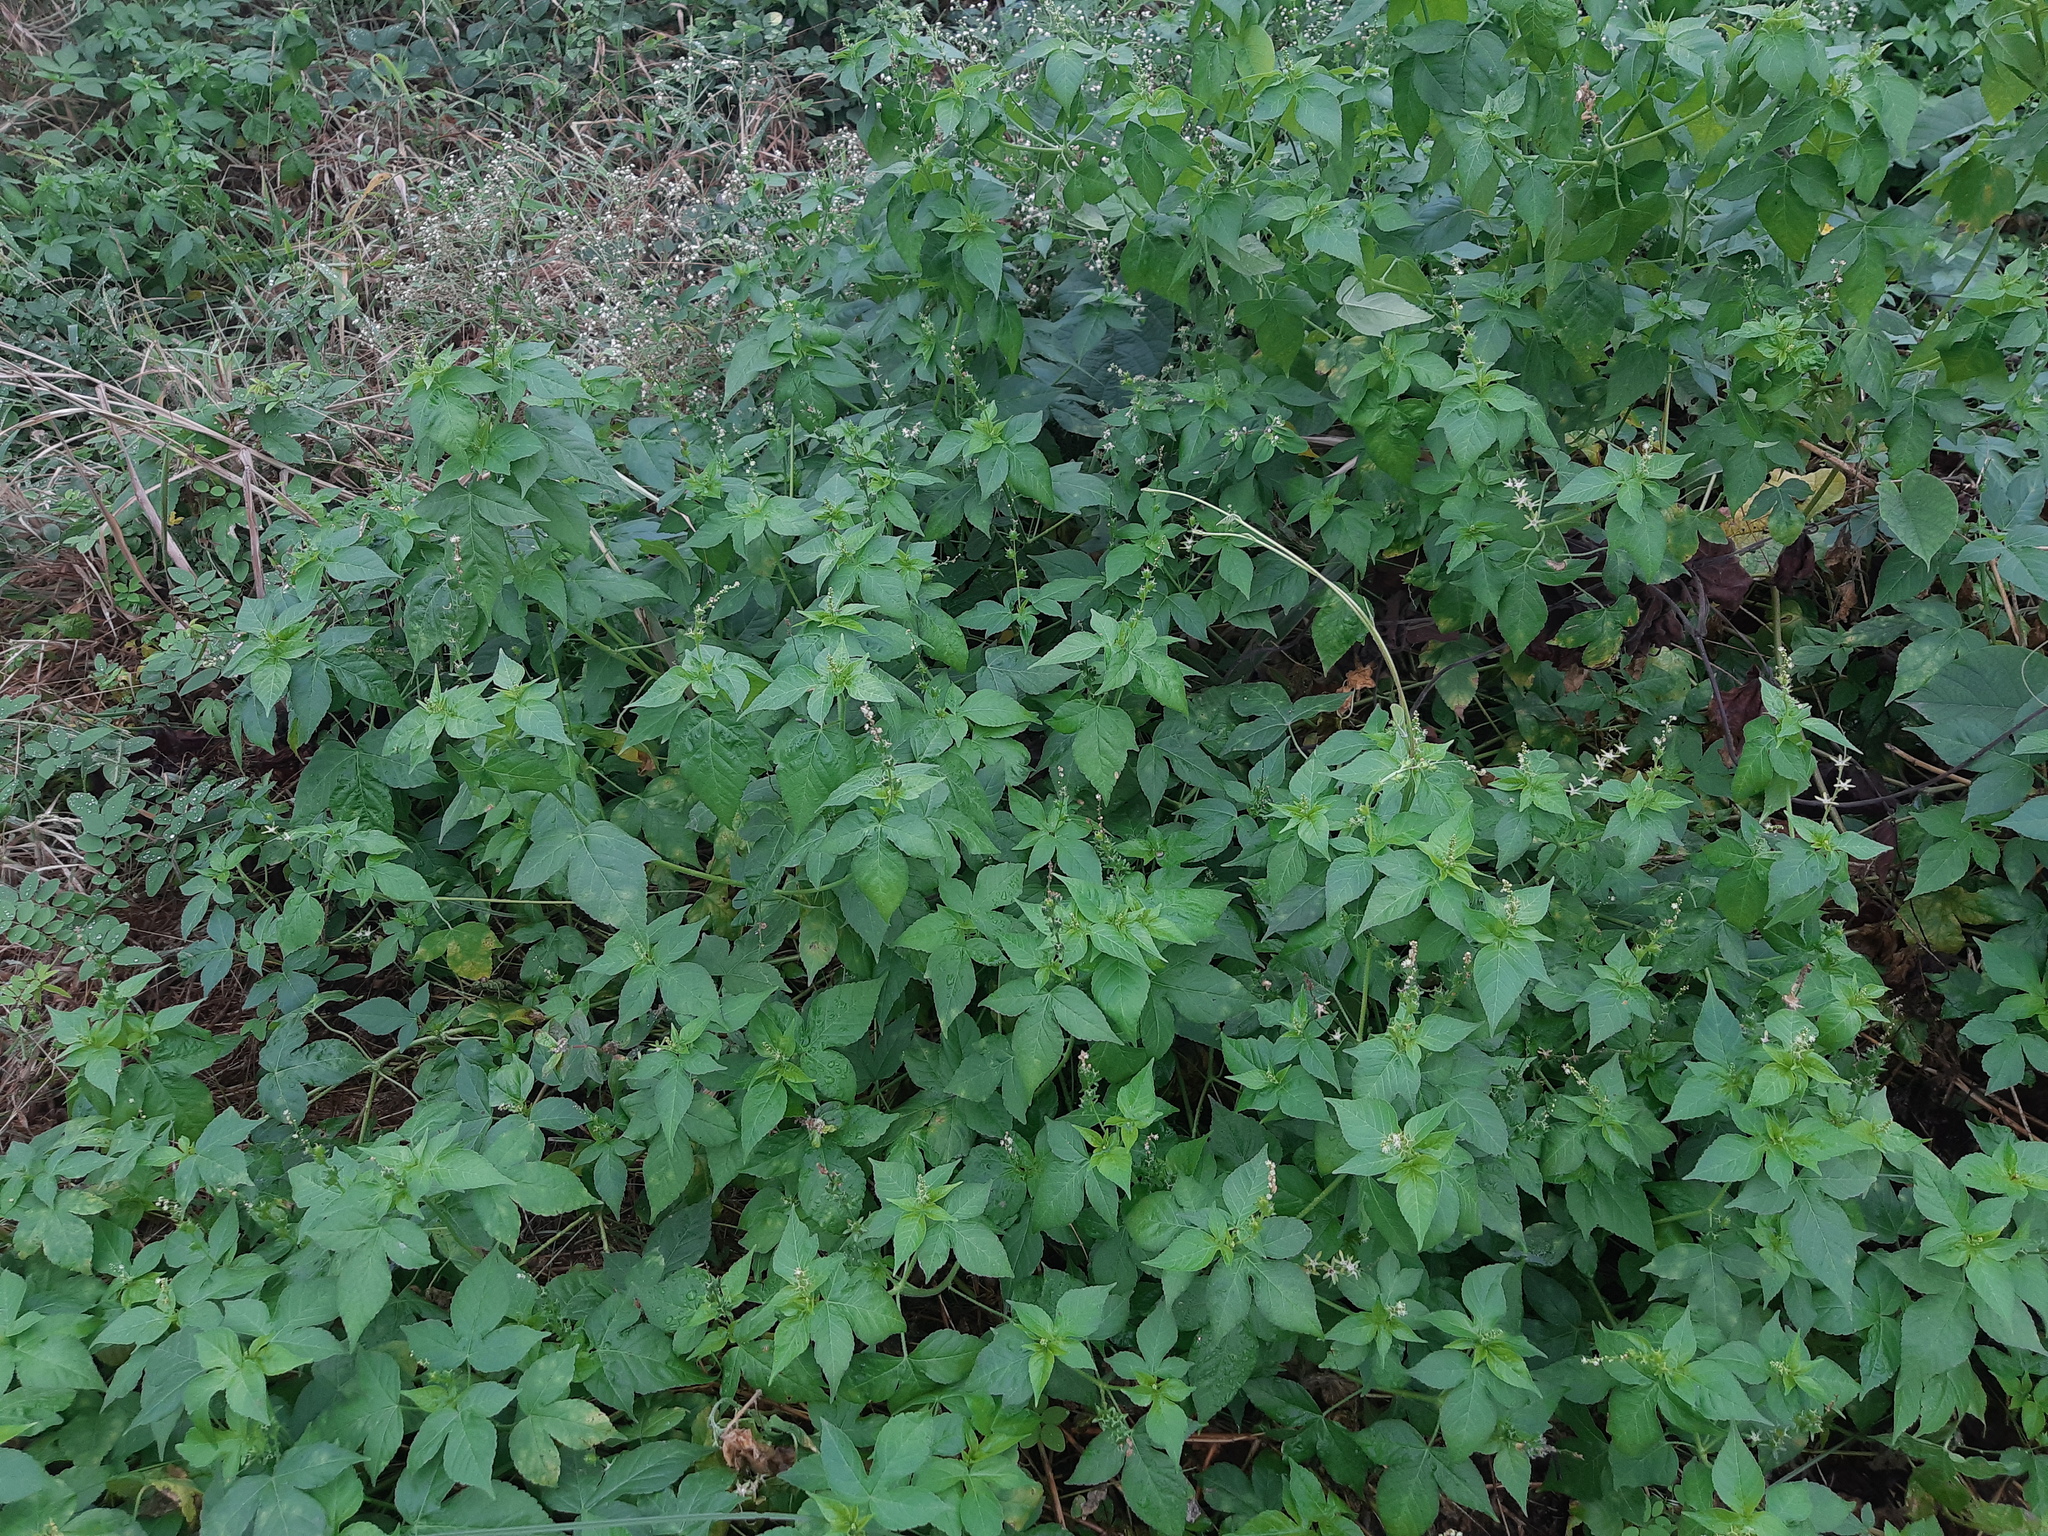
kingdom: Plantae
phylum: Tracheophyta
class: Magnoliopsida
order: Malpighiales
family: Euphorbiaceae
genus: Astraea
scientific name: Astraea lobata
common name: Lobed croton
